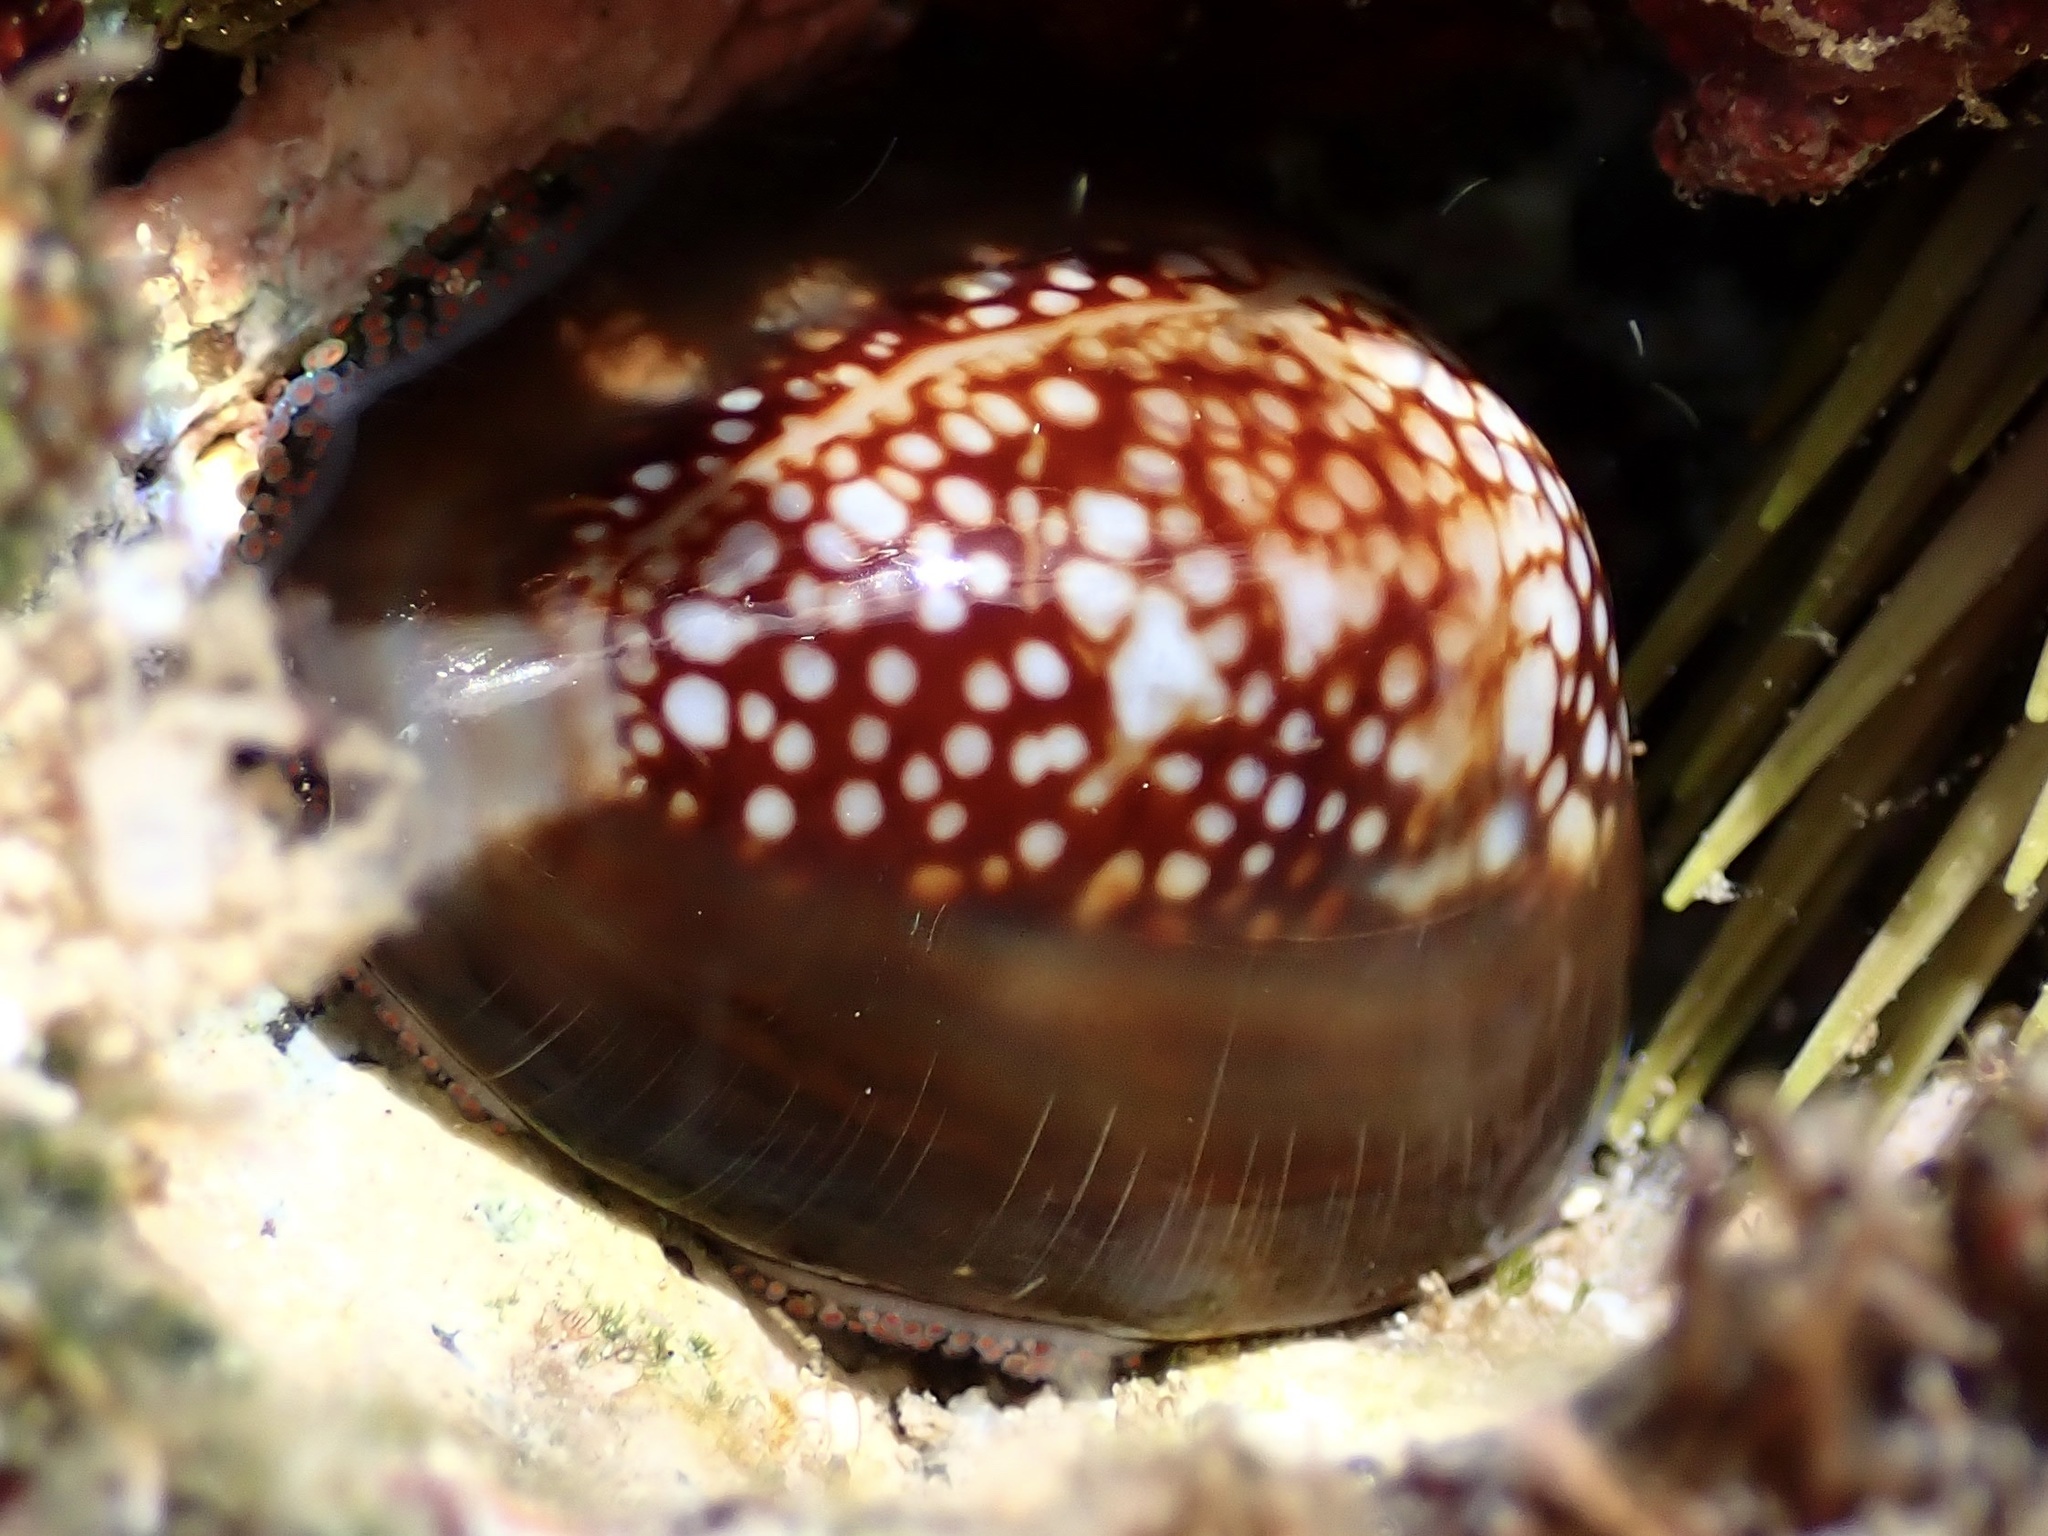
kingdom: Animalia
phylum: Mollusca
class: Gastropoda
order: Littorinimorpha
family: Cypraeidae
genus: Monetaria
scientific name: Monetaria caputophidii
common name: Snake's head cowry
